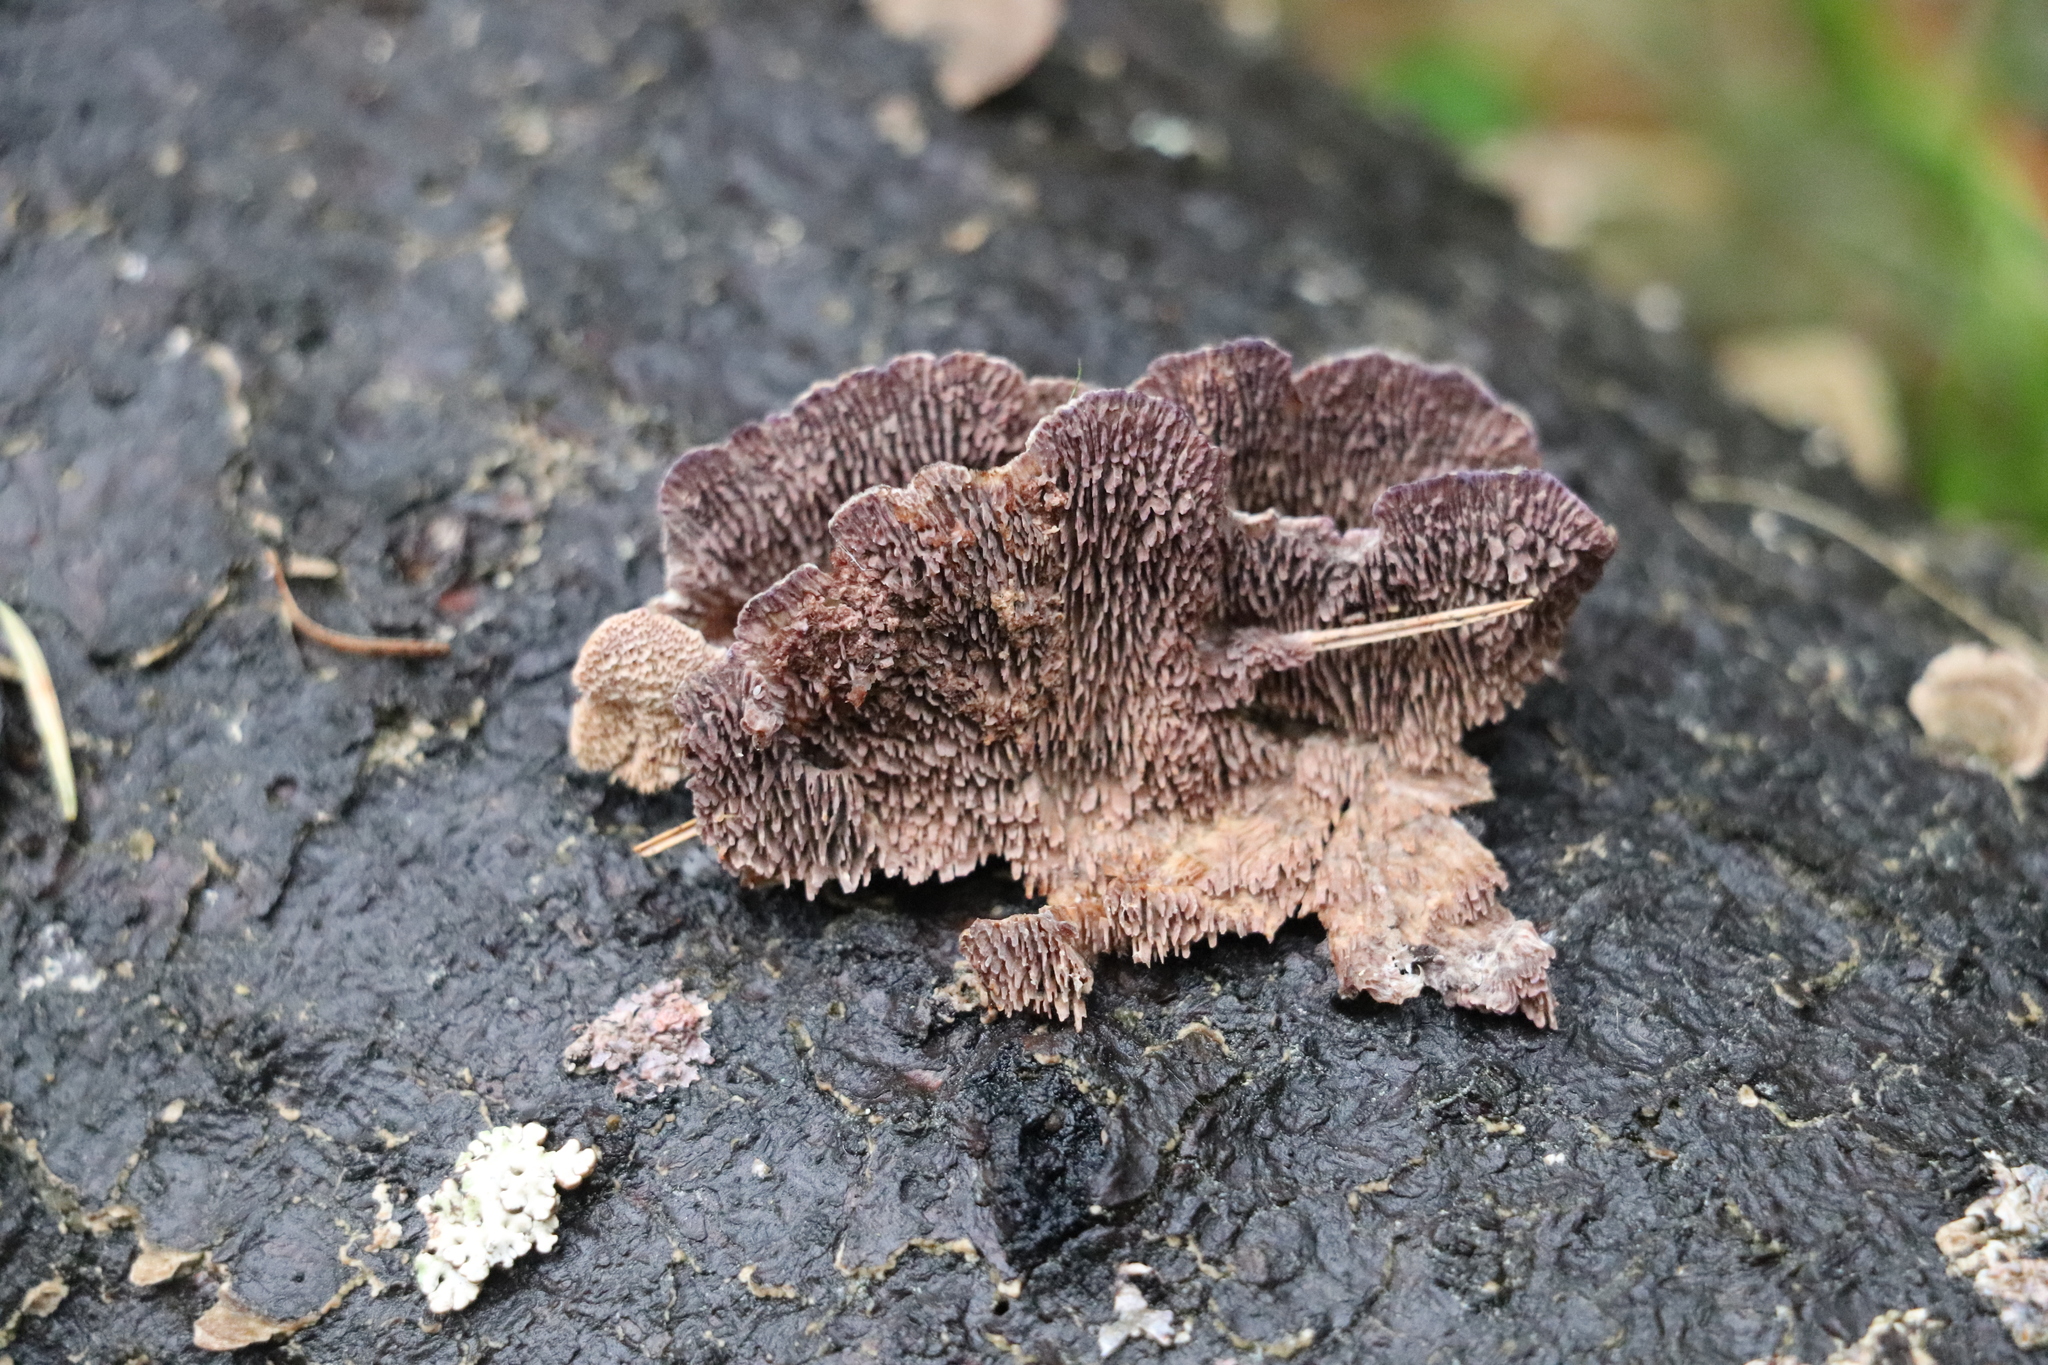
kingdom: Fungi
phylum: Basidiomycota
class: Agaricomycetes
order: Hymenochaetales
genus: Trichaptum
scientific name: Trichaptum fuscoviolaceum
